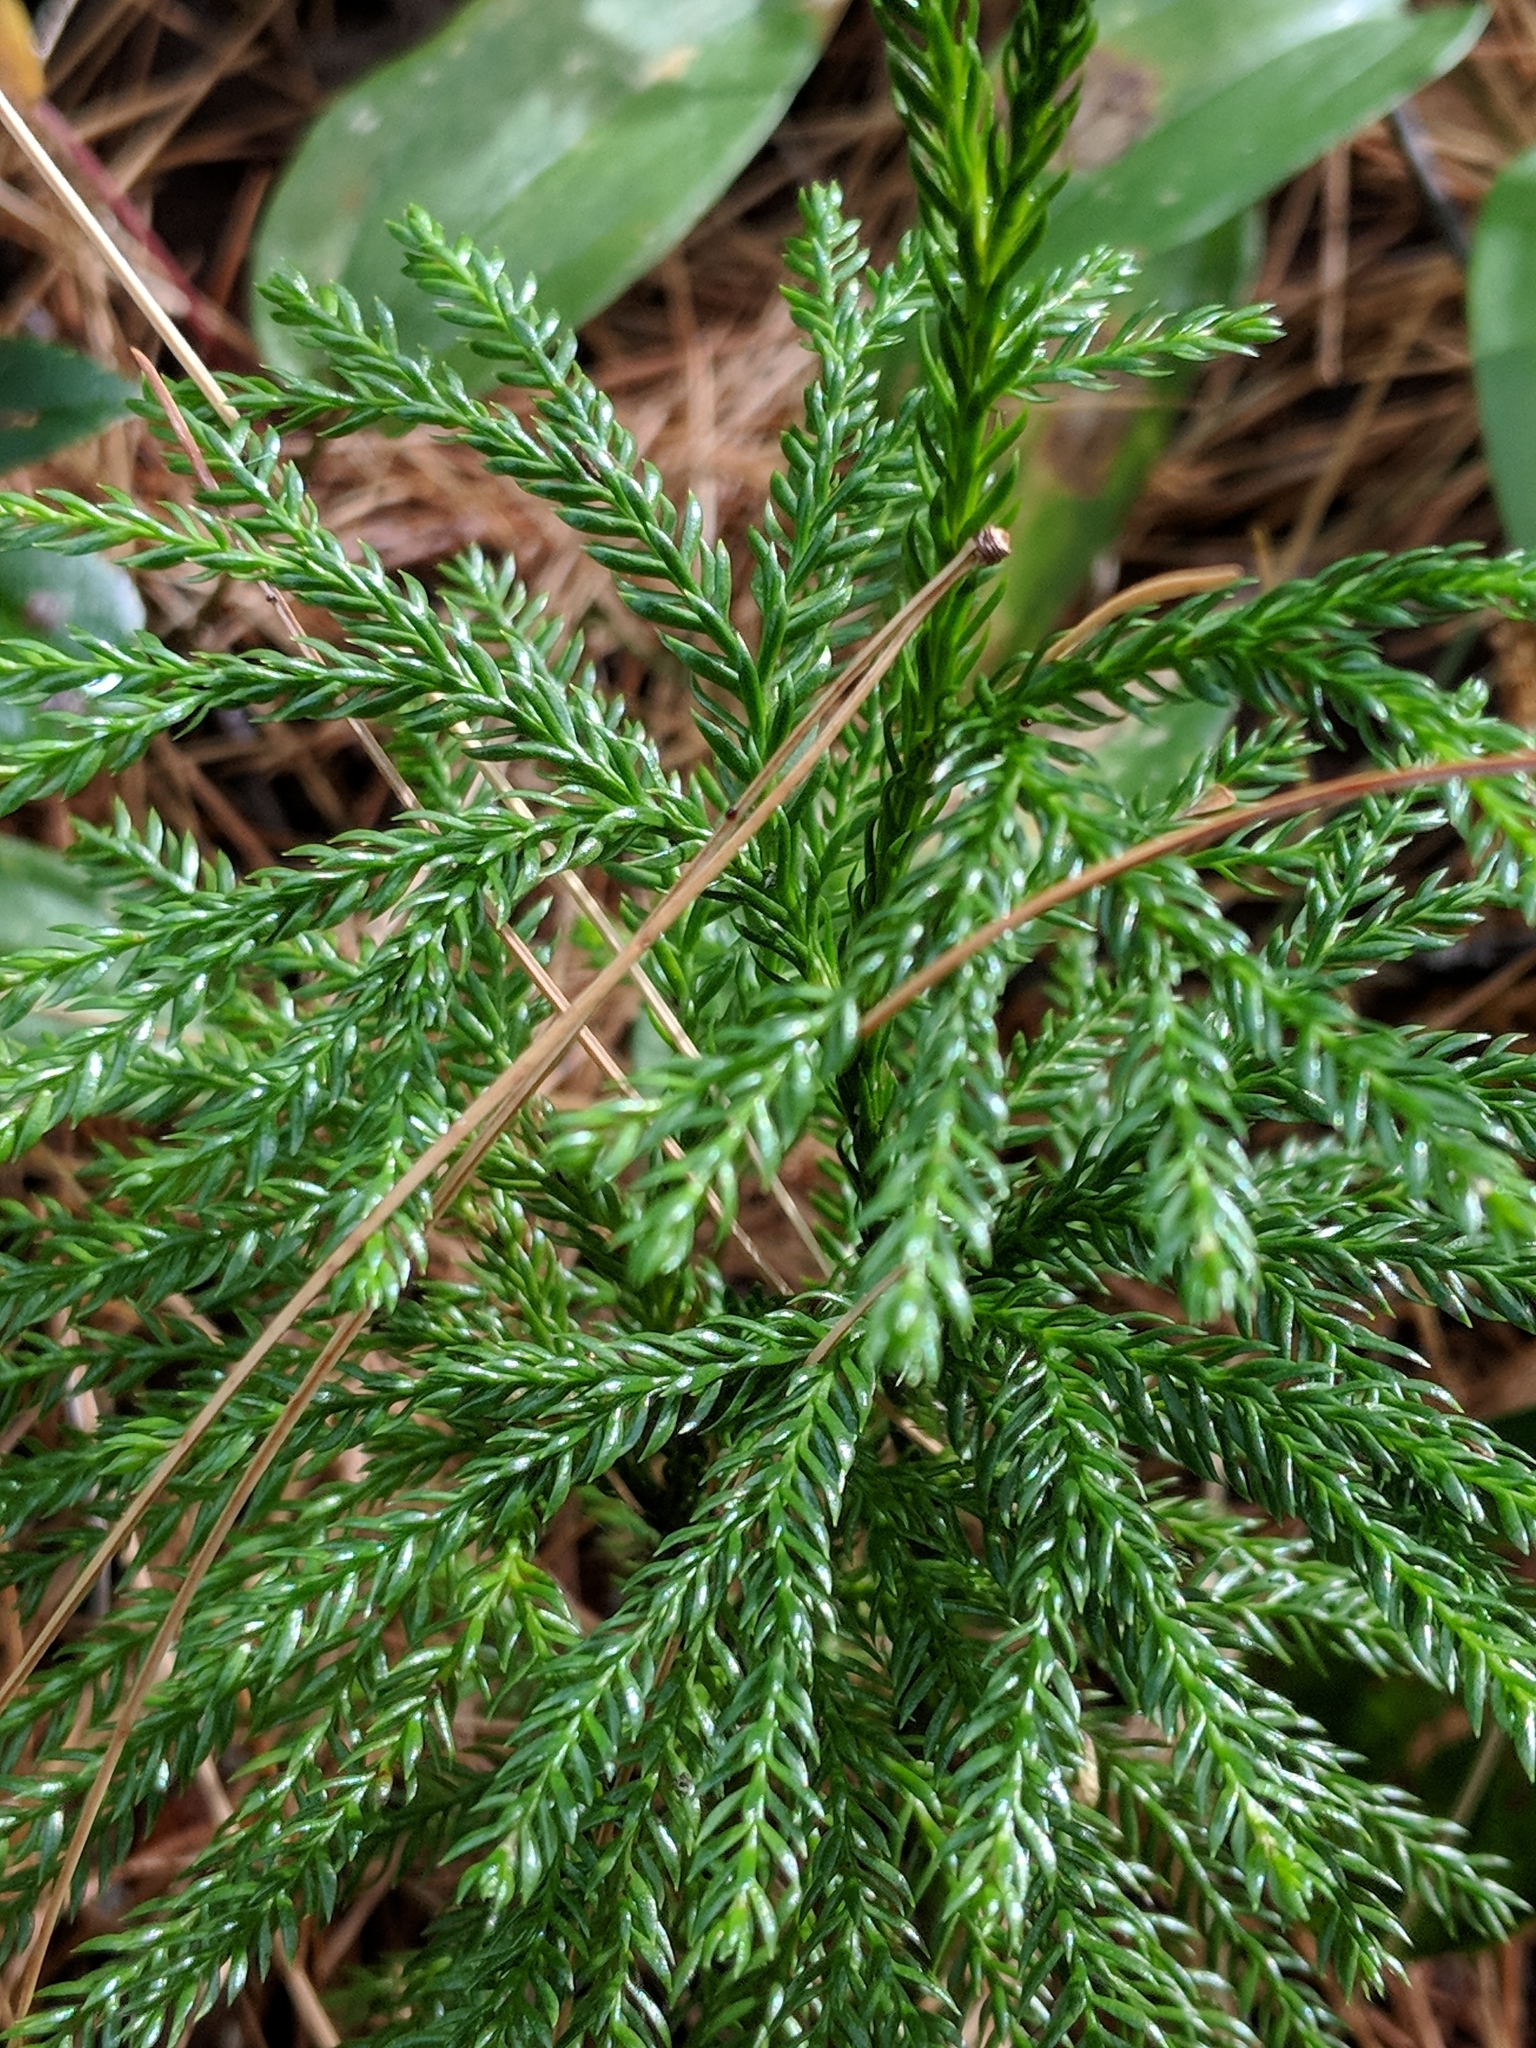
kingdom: Plantae
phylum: Tracheophyta
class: Lycopodiopsida
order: Lycopodiales
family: Lycopodiaceae
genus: Dendrolycopodium
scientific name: Dendrolycopodium hickeyi
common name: Hickey's clubmoss
